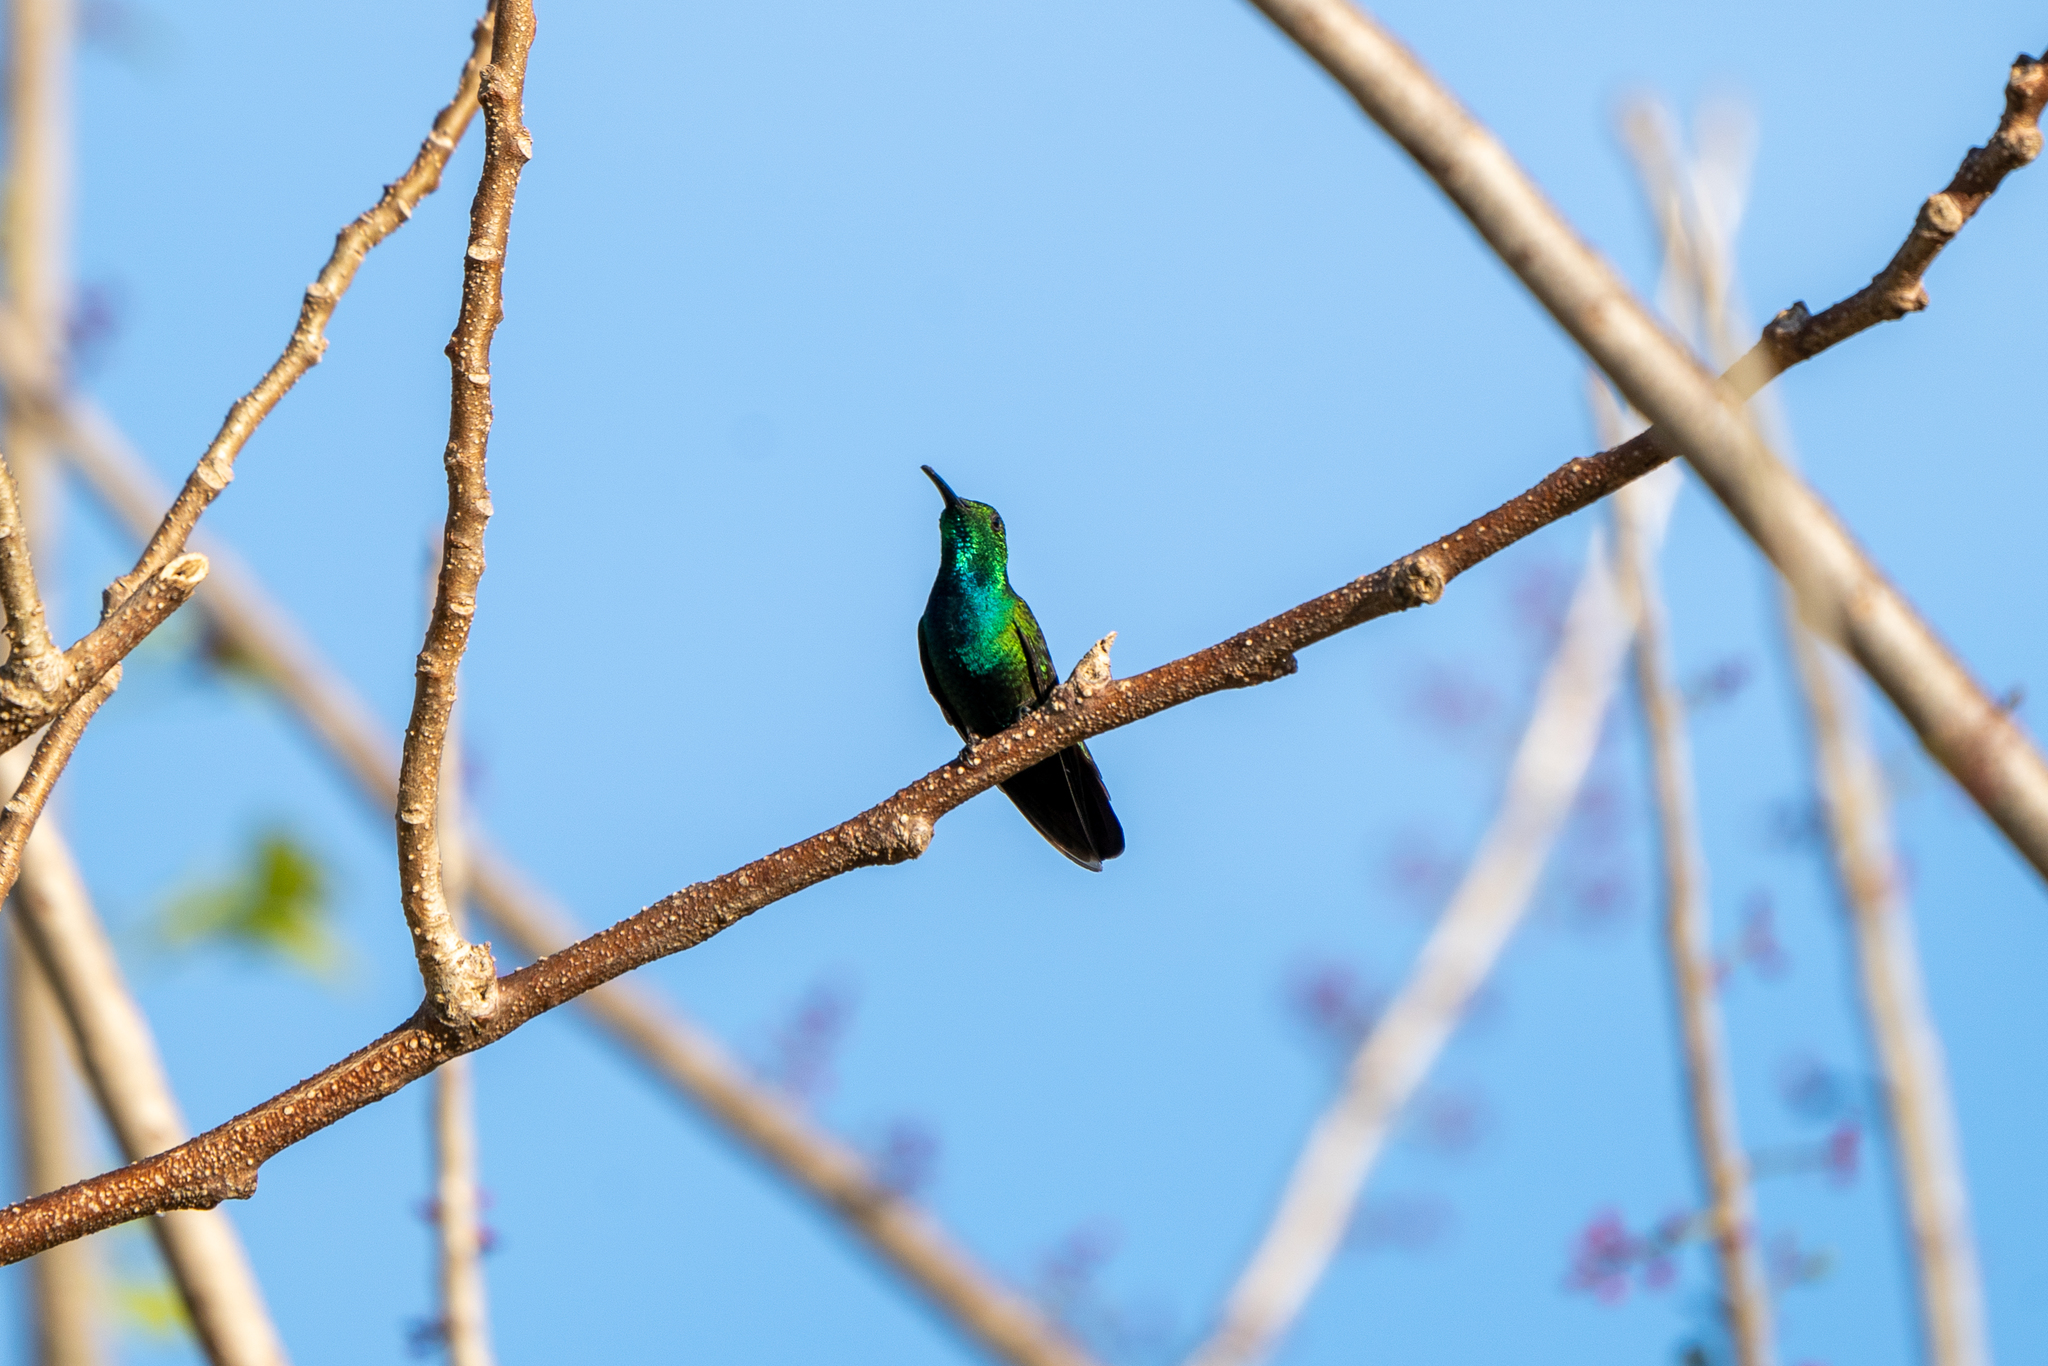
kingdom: Animalia
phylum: Chordata
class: Aves
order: Apodiformes
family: Trochilidae
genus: Anthracothorax
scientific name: Anthracothorax veraguensis
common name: Veraguan mango
